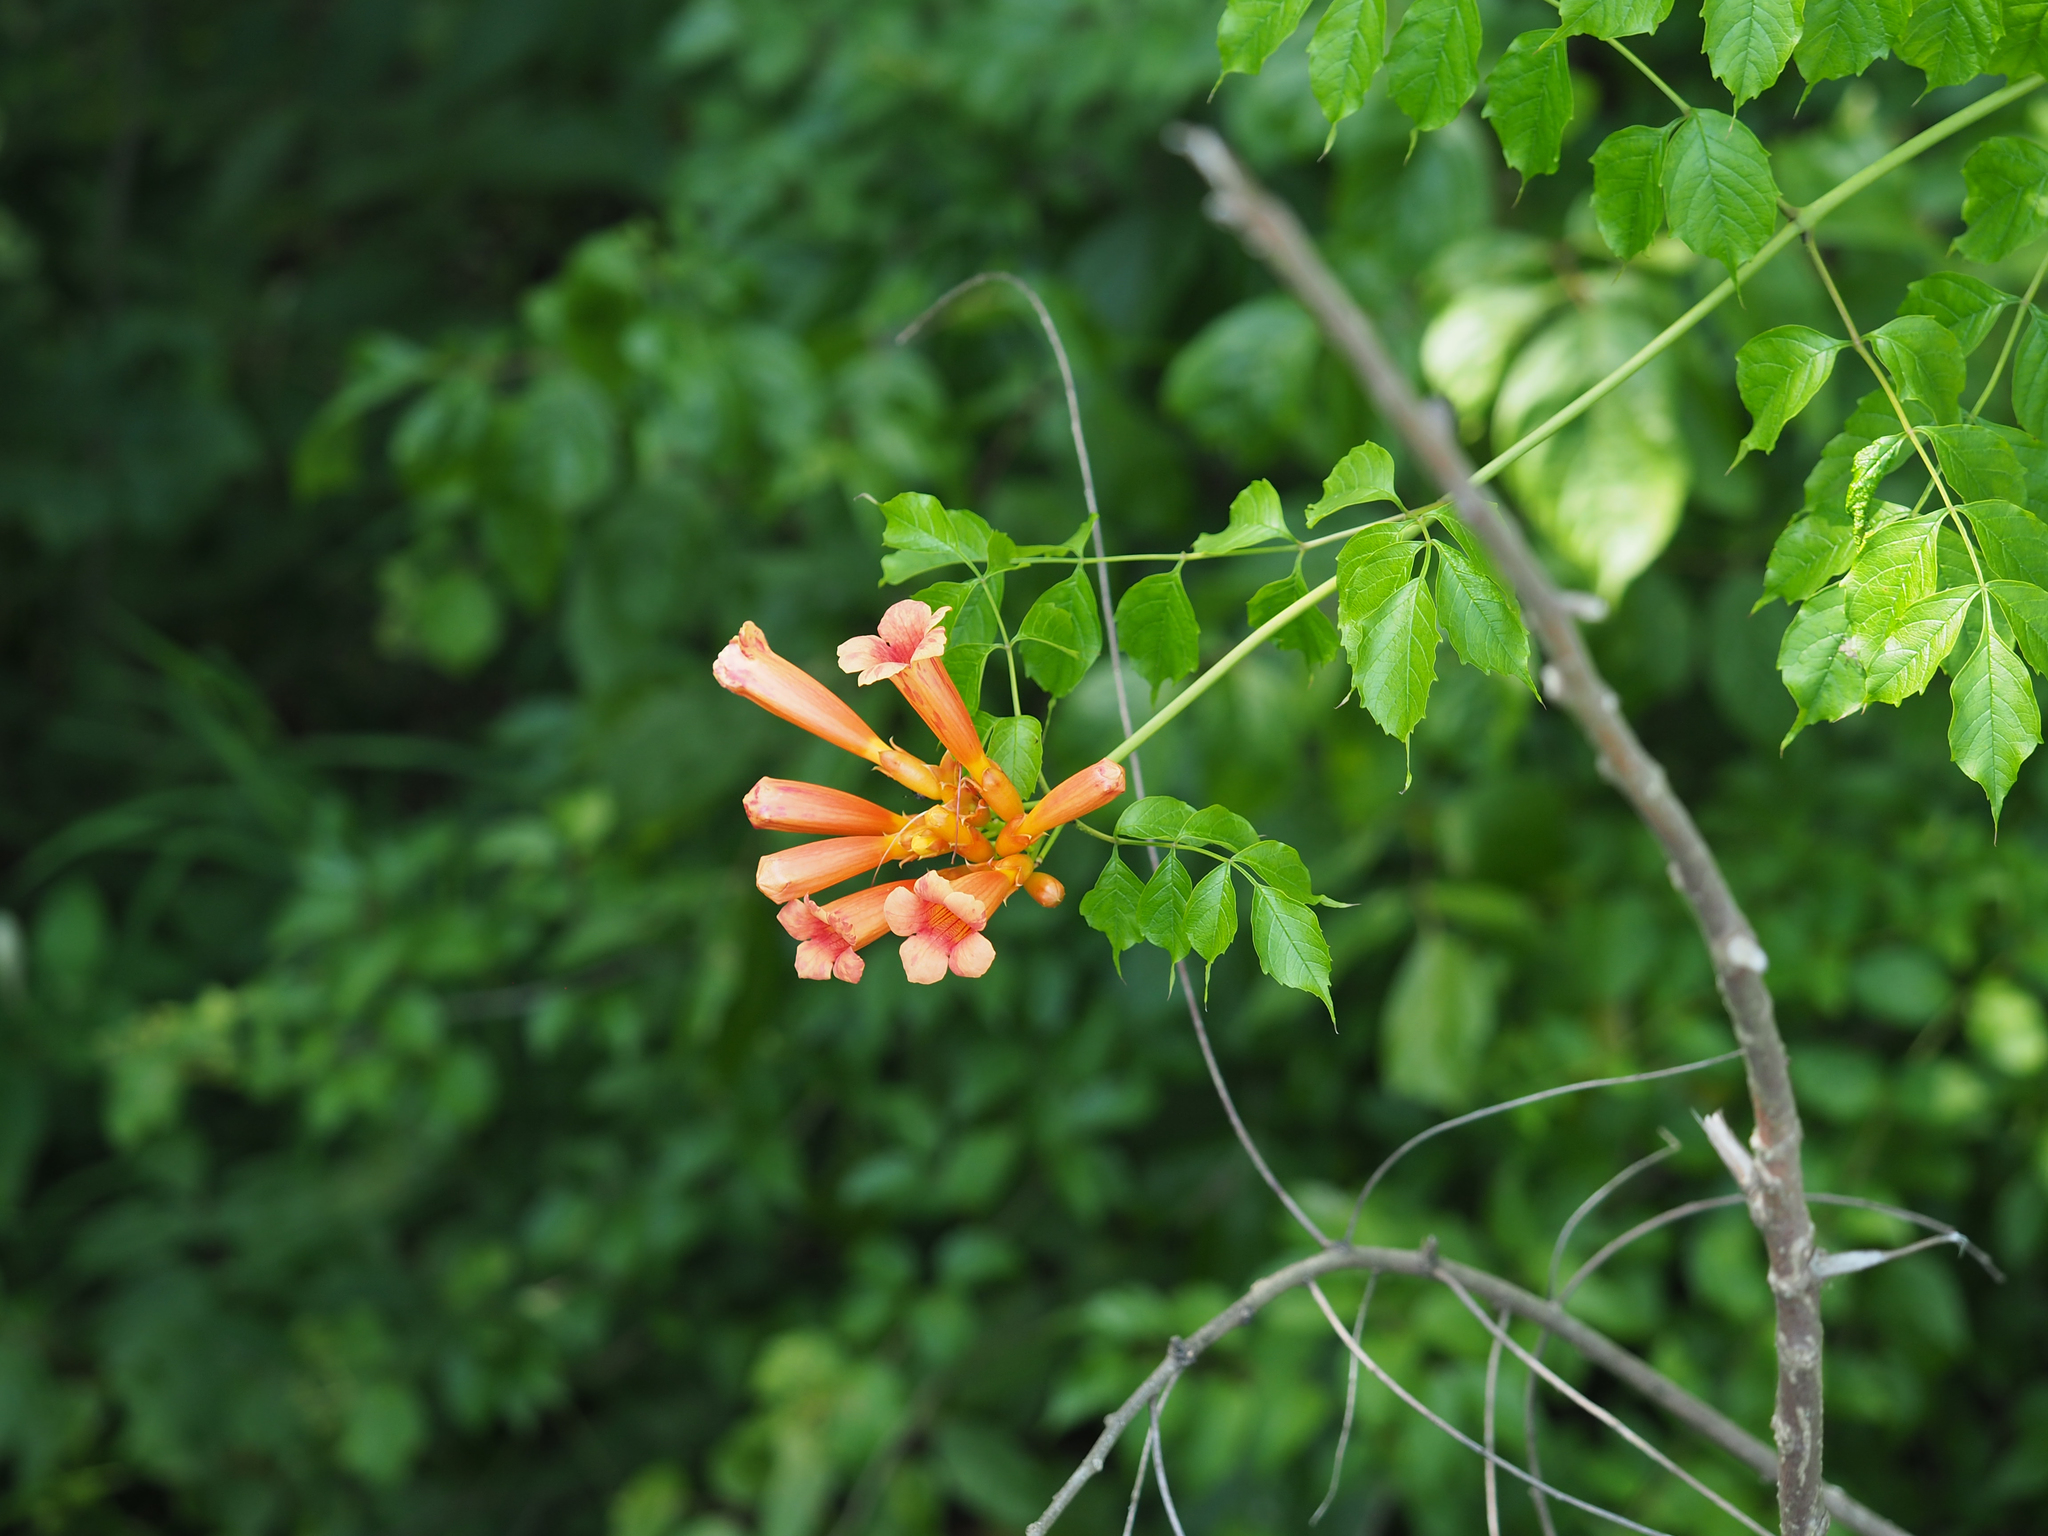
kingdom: Plantae
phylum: Tracheophyta
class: Magnoliopsida
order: Lamiales
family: Bignoniaceae
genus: Campsis
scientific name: Campsis radicans
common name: Trumpet-creeper
